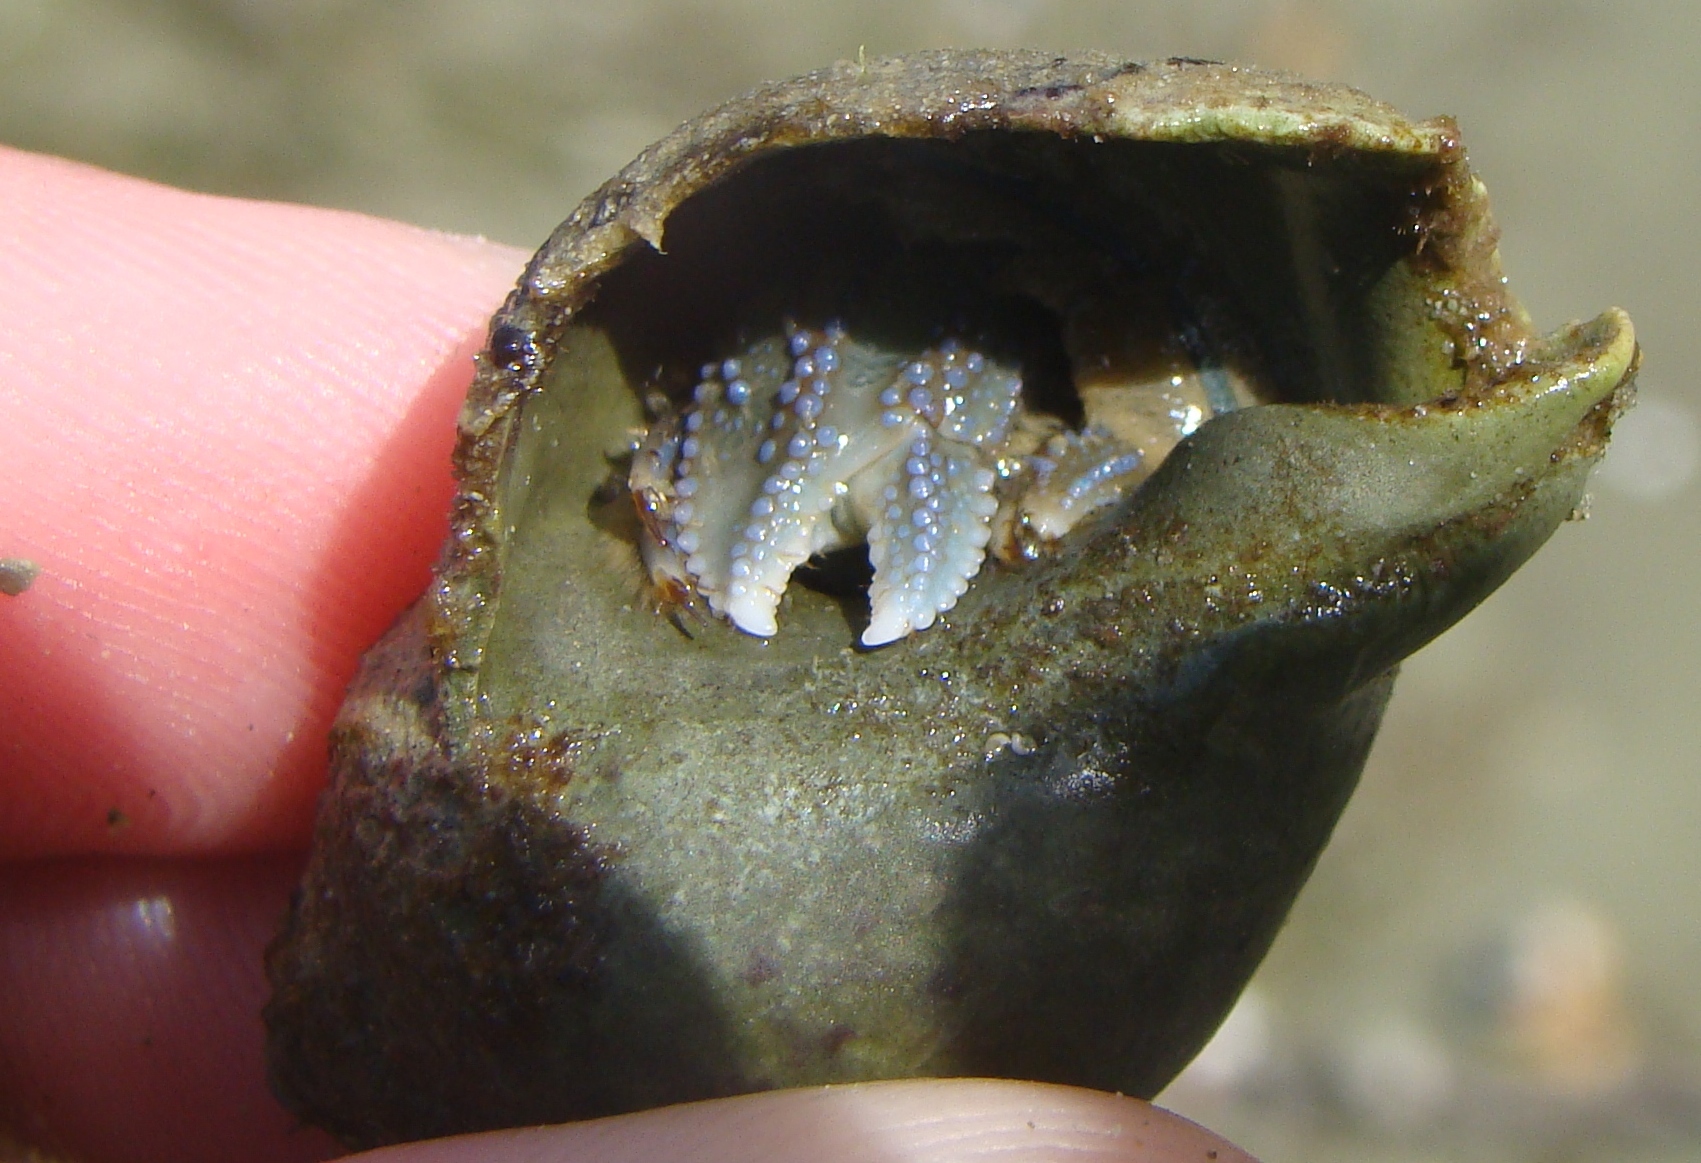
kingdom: Animalia
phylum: Arthropoda
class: Malacostraca
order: Decapoda
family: Paguridae
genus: Pagurus
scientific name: Pagurus novizealandiae
